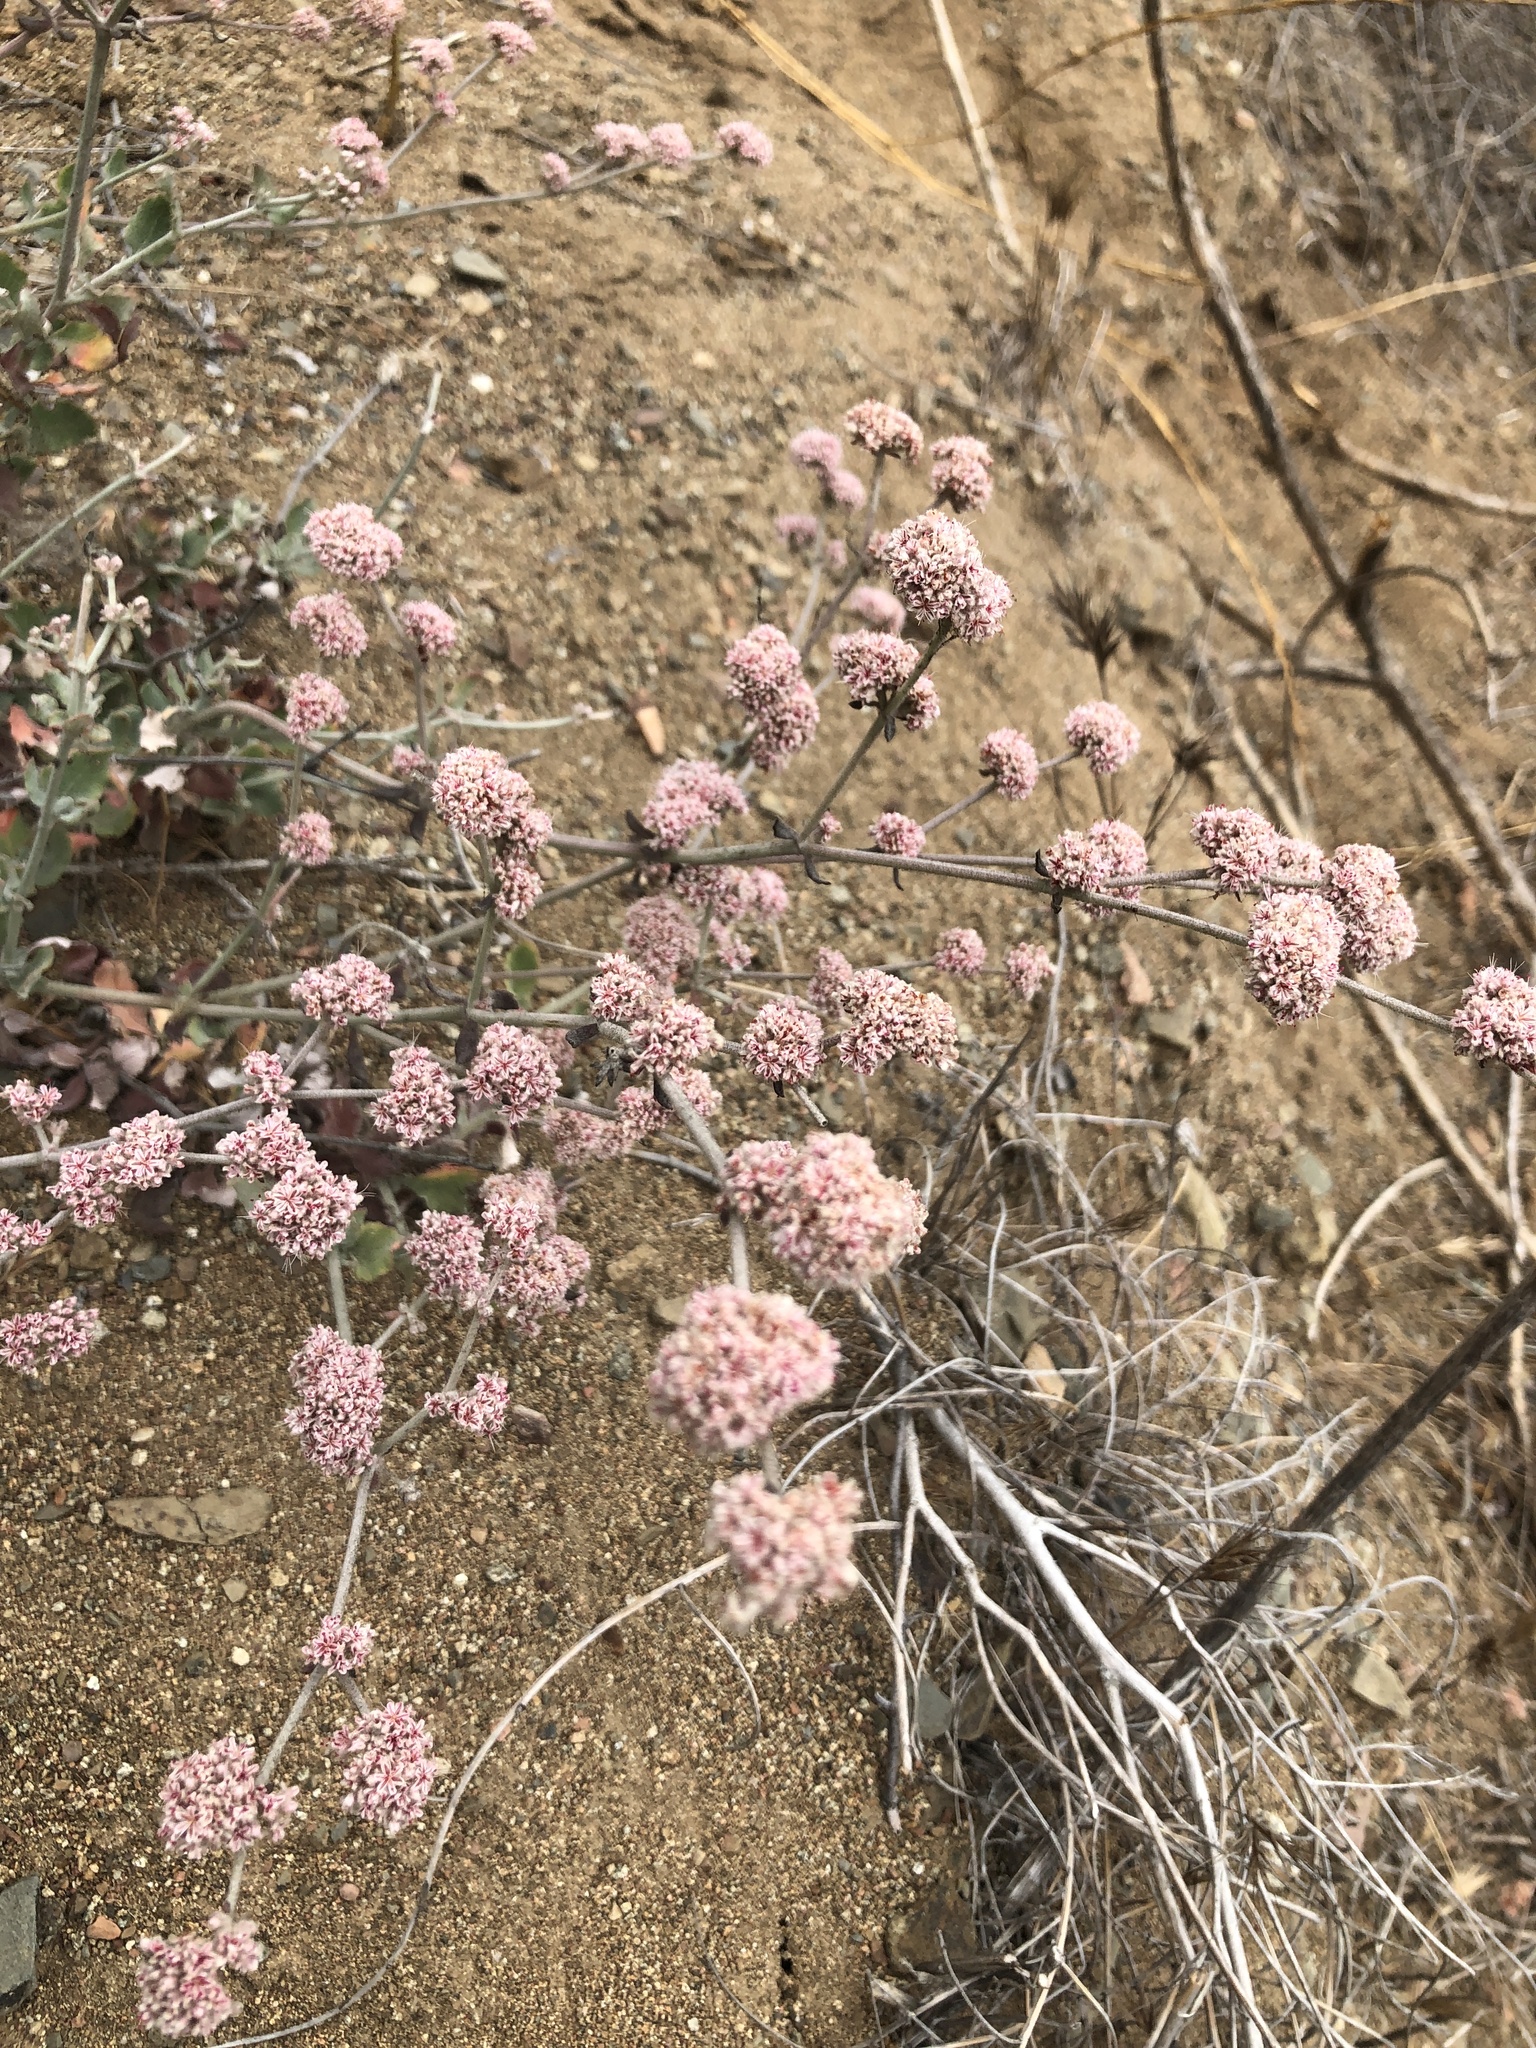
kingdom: Plantae
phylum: Tracheophyta
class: Magnoliopsida
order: Caryophyllales
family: Polygonaceae
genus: Eriogonum
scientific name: Eriogonum cinereum
